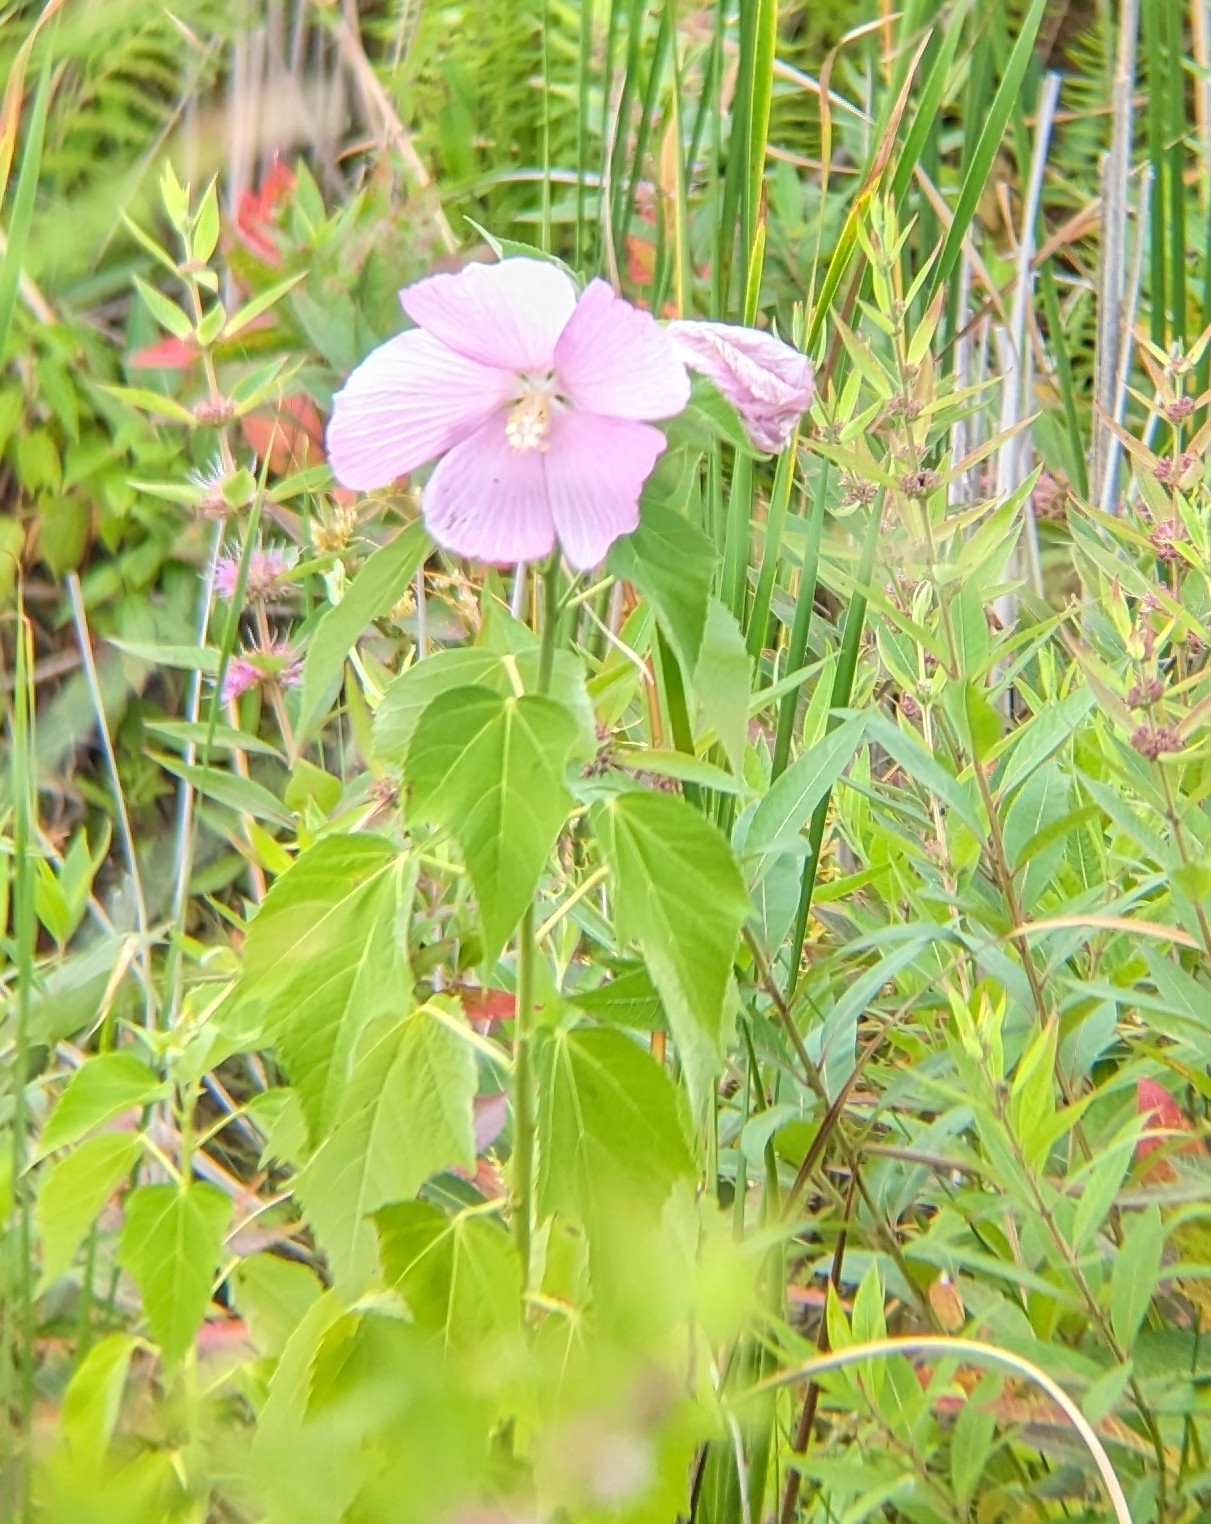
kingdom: Plantae
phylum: Tracheophyta
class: Magnoliopsida
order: Malvales
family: Malvaceae
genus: Hibiscus
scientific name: Hibiscus moscheutos
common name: Common rose-mallow
